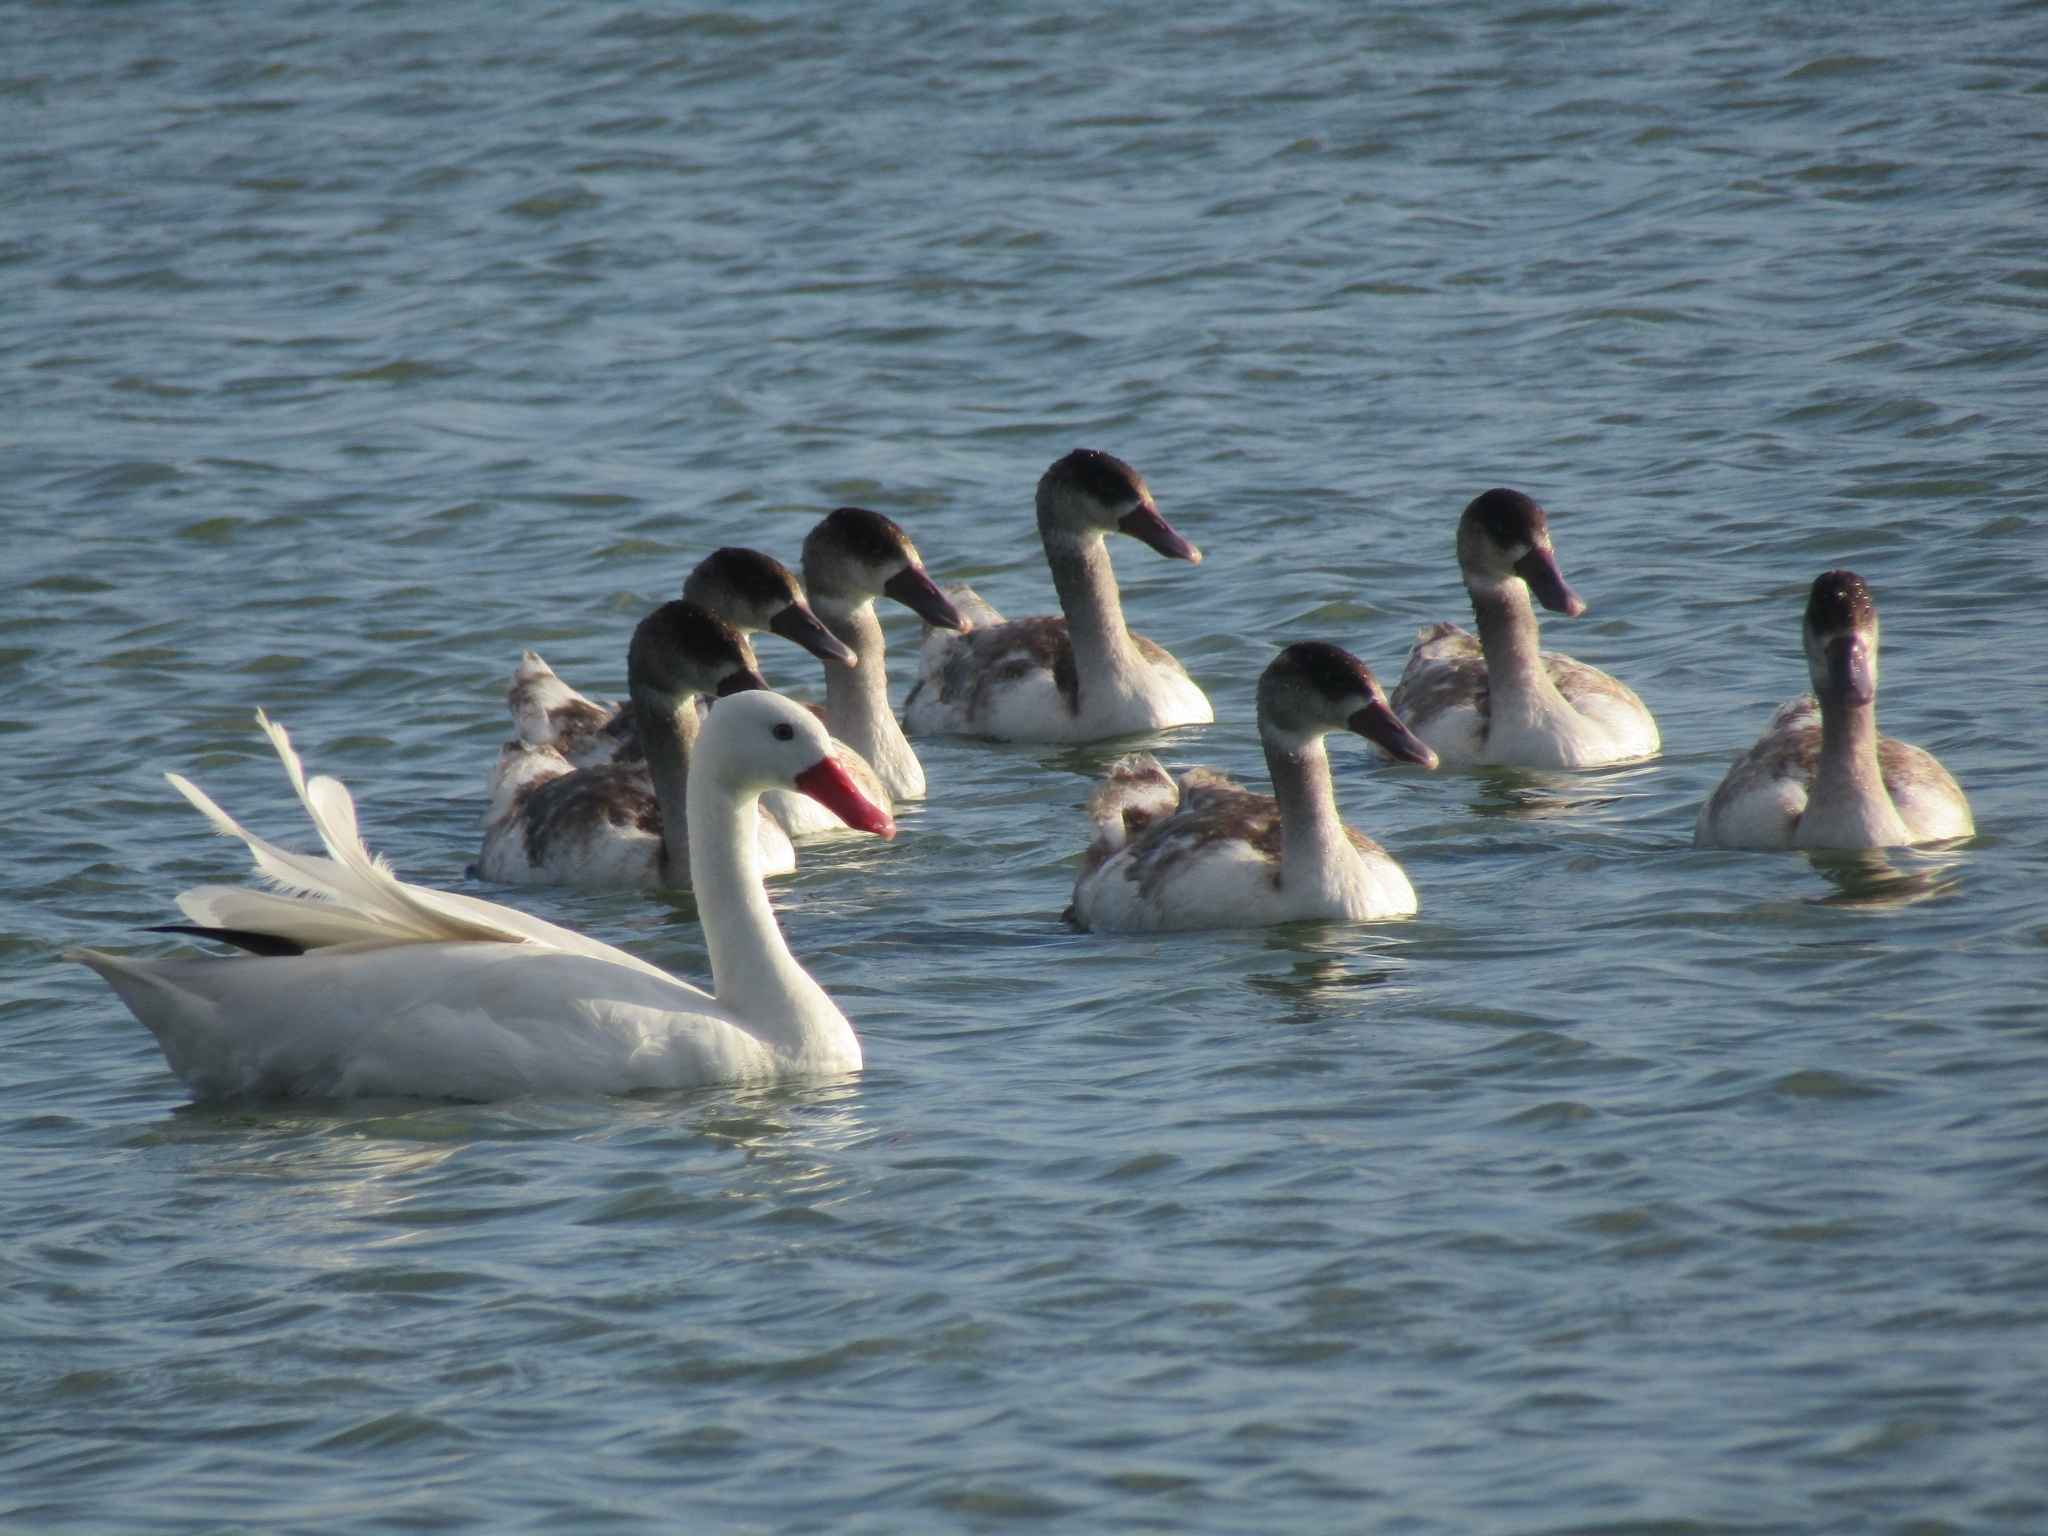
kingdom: Animalia
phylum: Chordata
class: Aves
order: Anseriformes
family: Anatidae
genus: Coscoroba
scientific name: Coscoroba coscoroba
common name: Coscoroba swan
